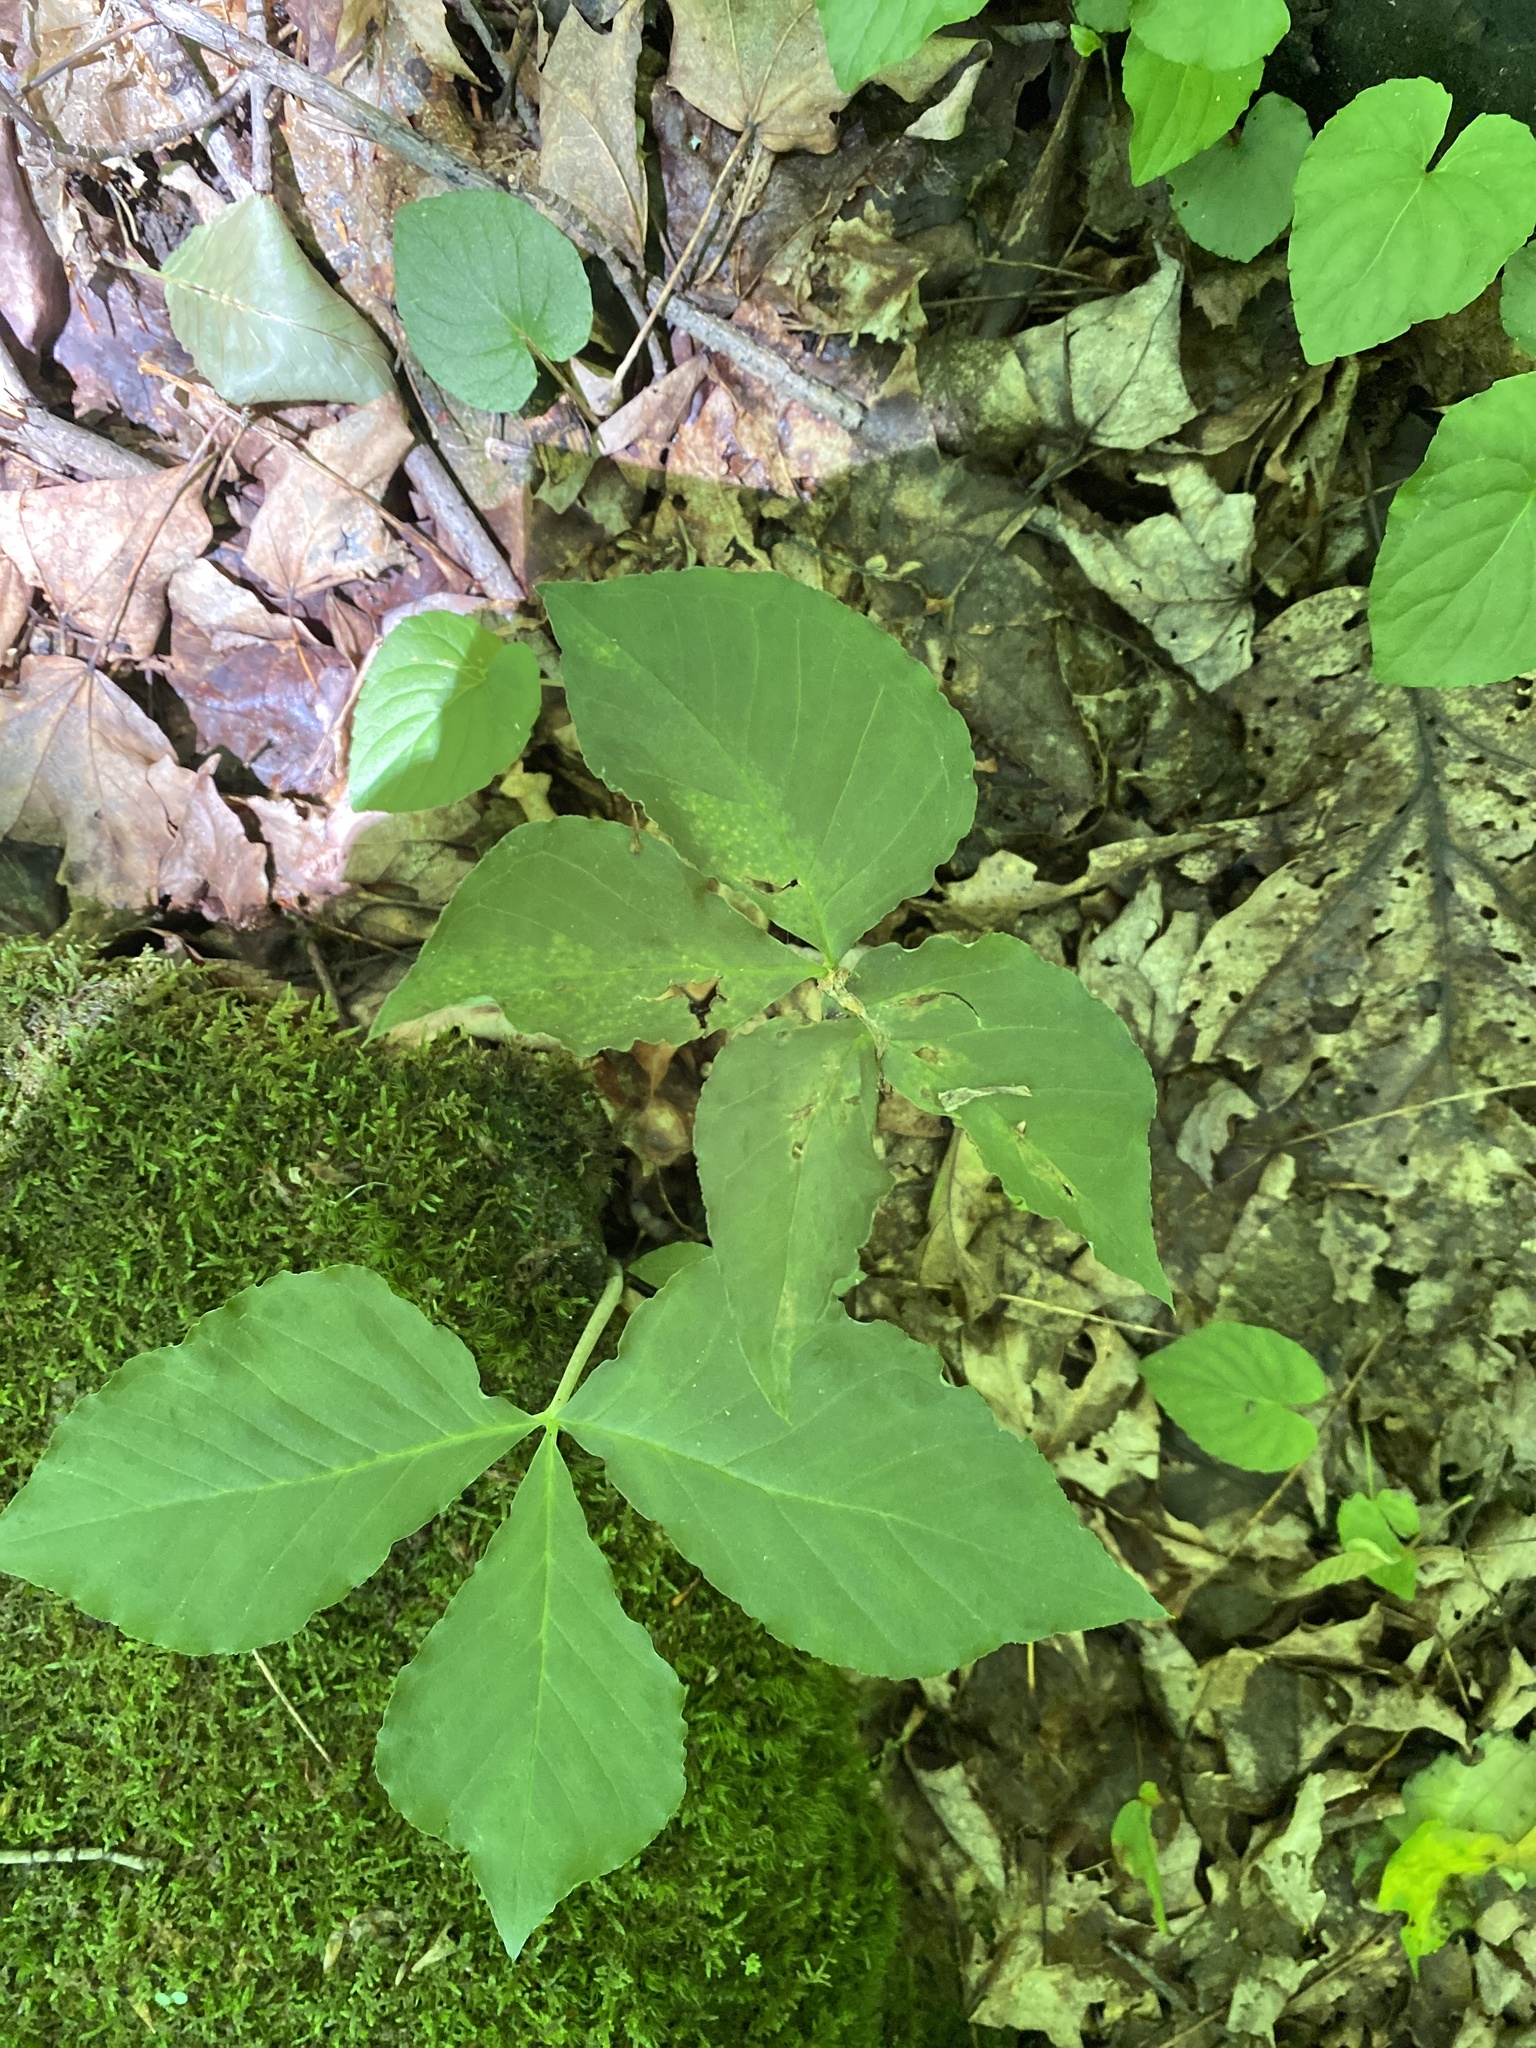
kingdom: Plantae
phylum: Tracheophyta
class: Liliopsida
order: Alismatales
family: Araceae
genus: Arisaema
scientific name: Arisaema triphyllum
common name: Jack-in-the-pulpit
